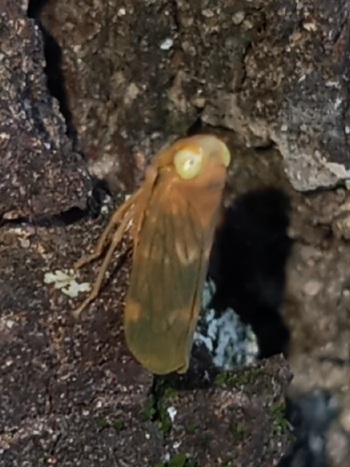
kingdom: Animalia
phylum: Arthropoda
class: Insecta
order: Hemiptera
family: Cicadellidae
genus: Jikradia
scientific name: Jikradia olitoria
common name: Coppery leafhopper
